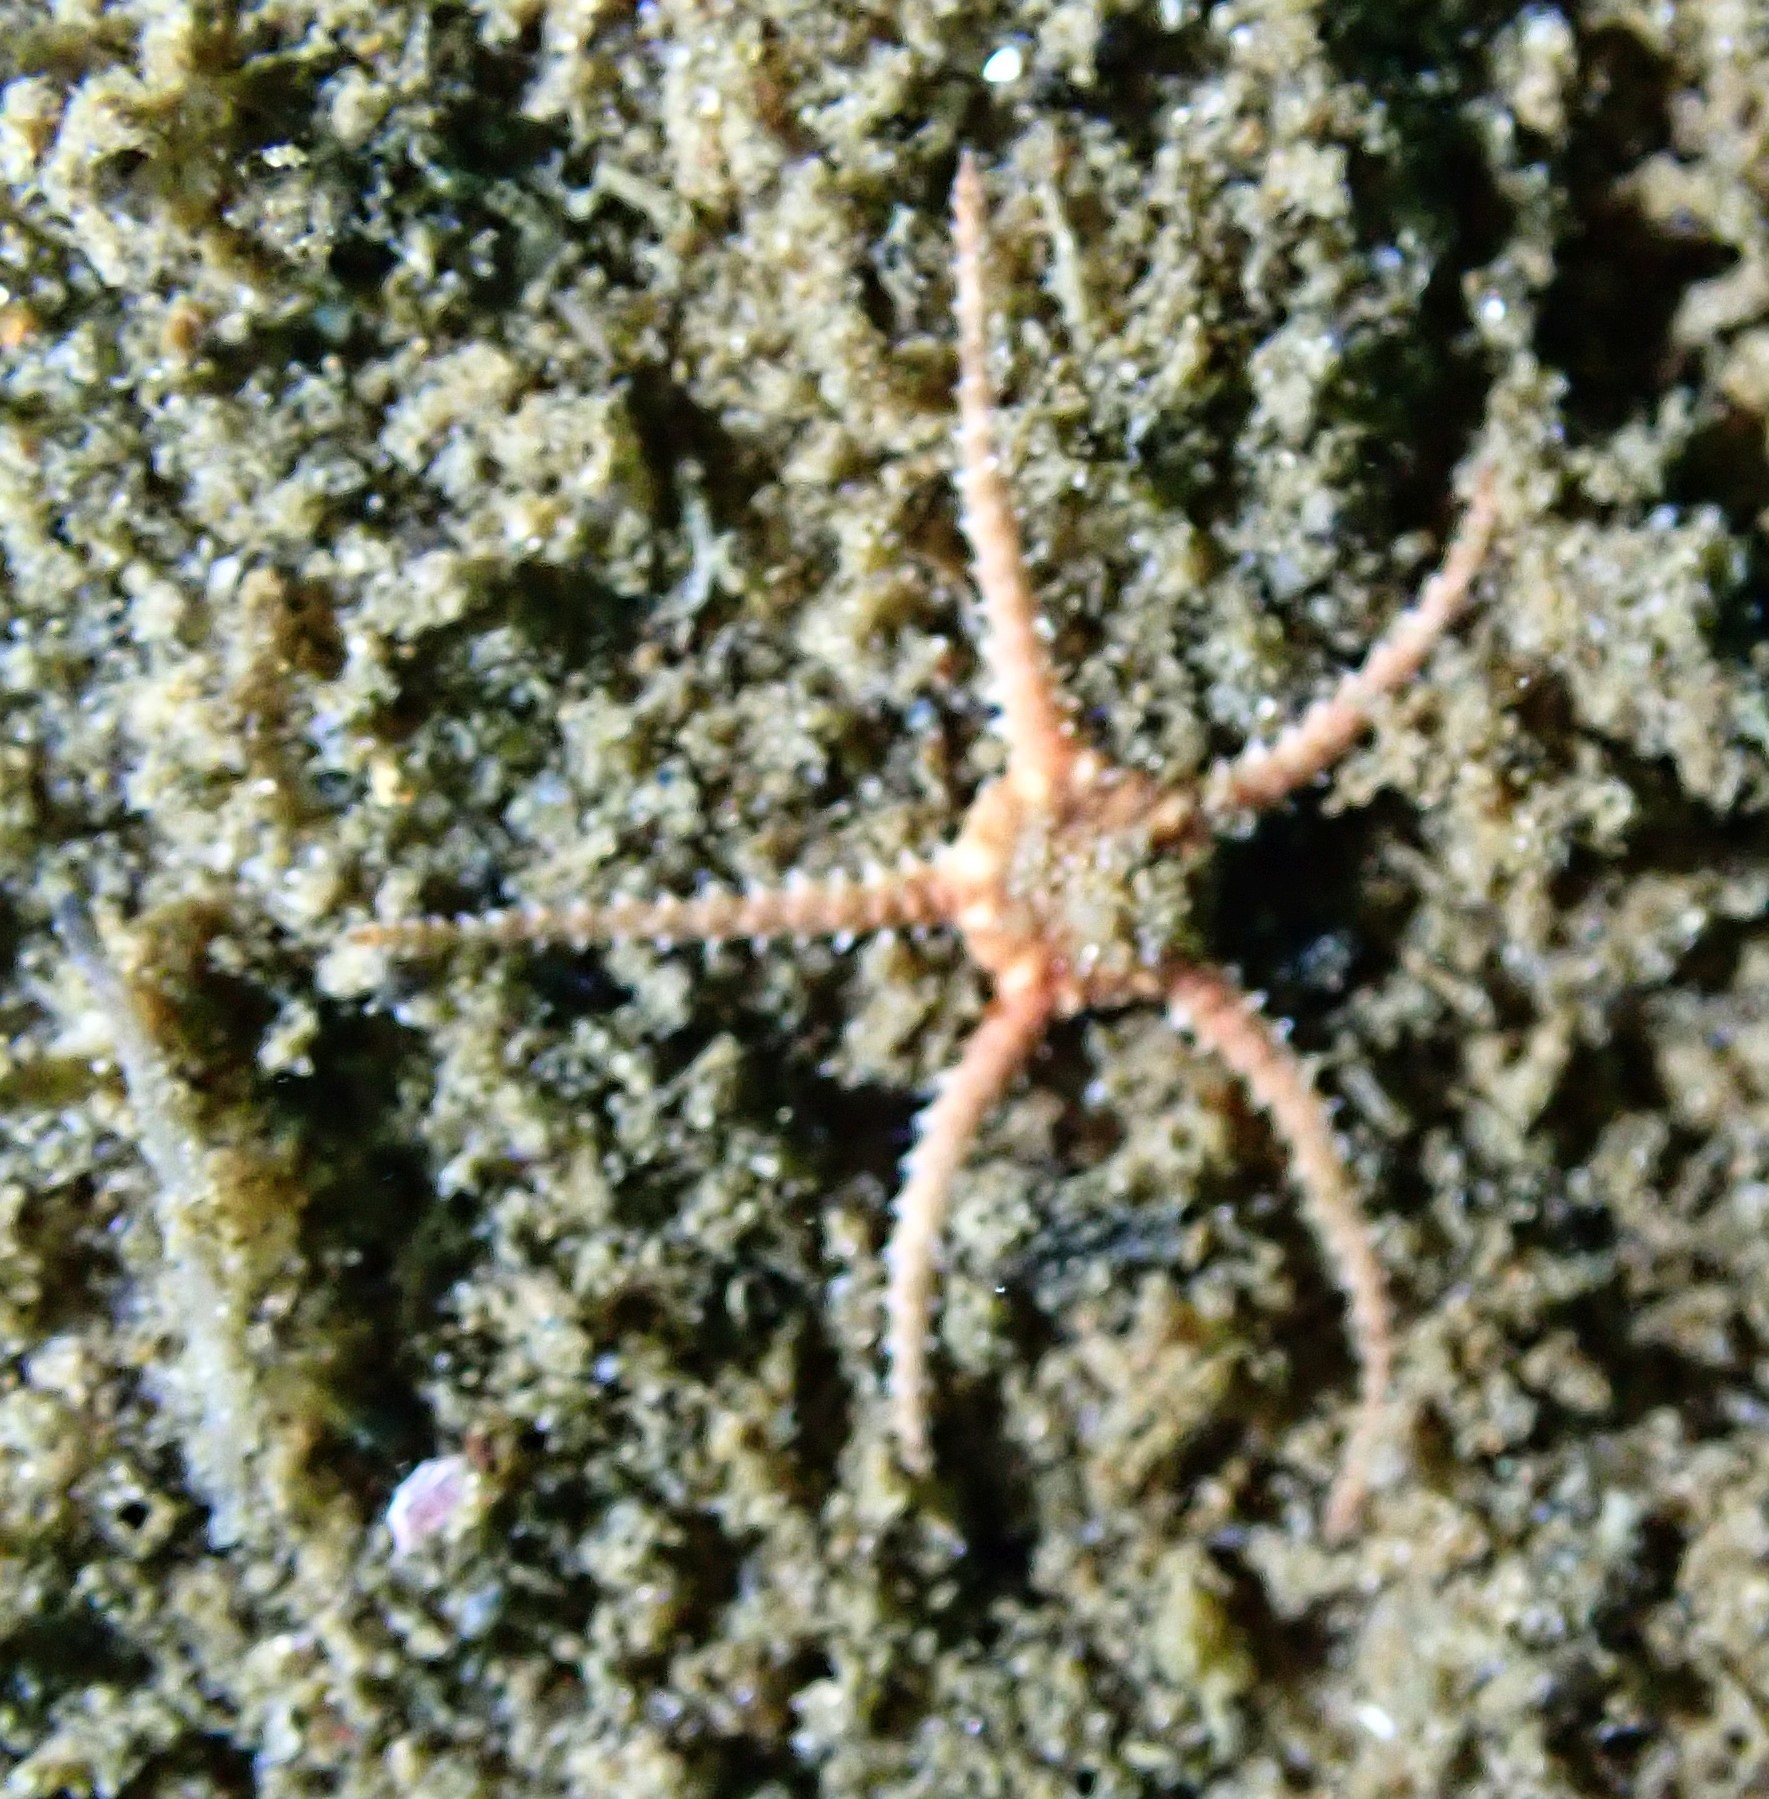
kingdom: Animalia
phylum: Echinodermata
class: Ophiuroidea
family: Ophiuridae
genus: Ophiura
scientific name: Ophiura albida
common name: Serpent's table brittlestar
